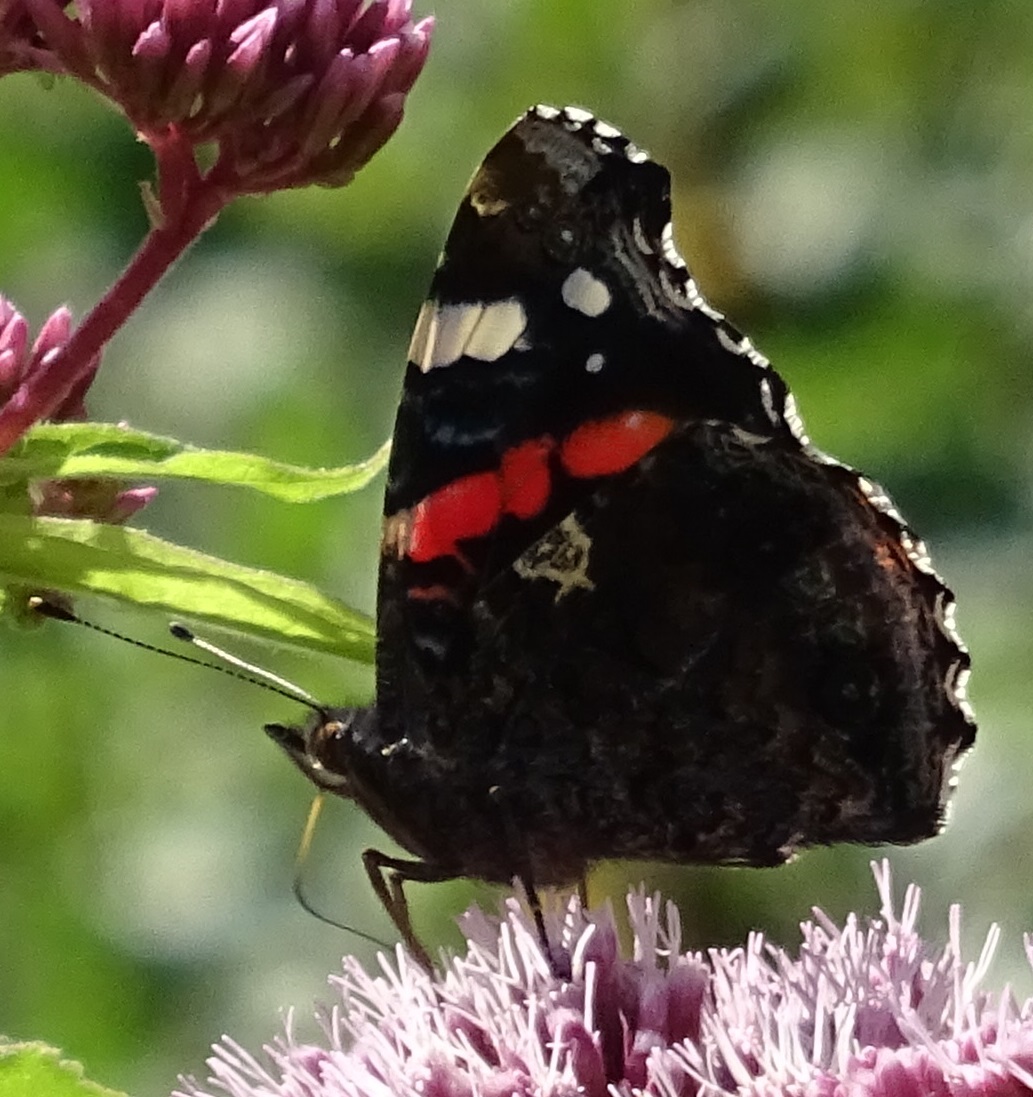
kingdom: Animalia
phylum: Arthropoda
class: Insecta
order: Lepidoptera
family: Nymphalidae
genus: Vanessa
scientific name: Vanessa atalanta
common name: Red admiral
